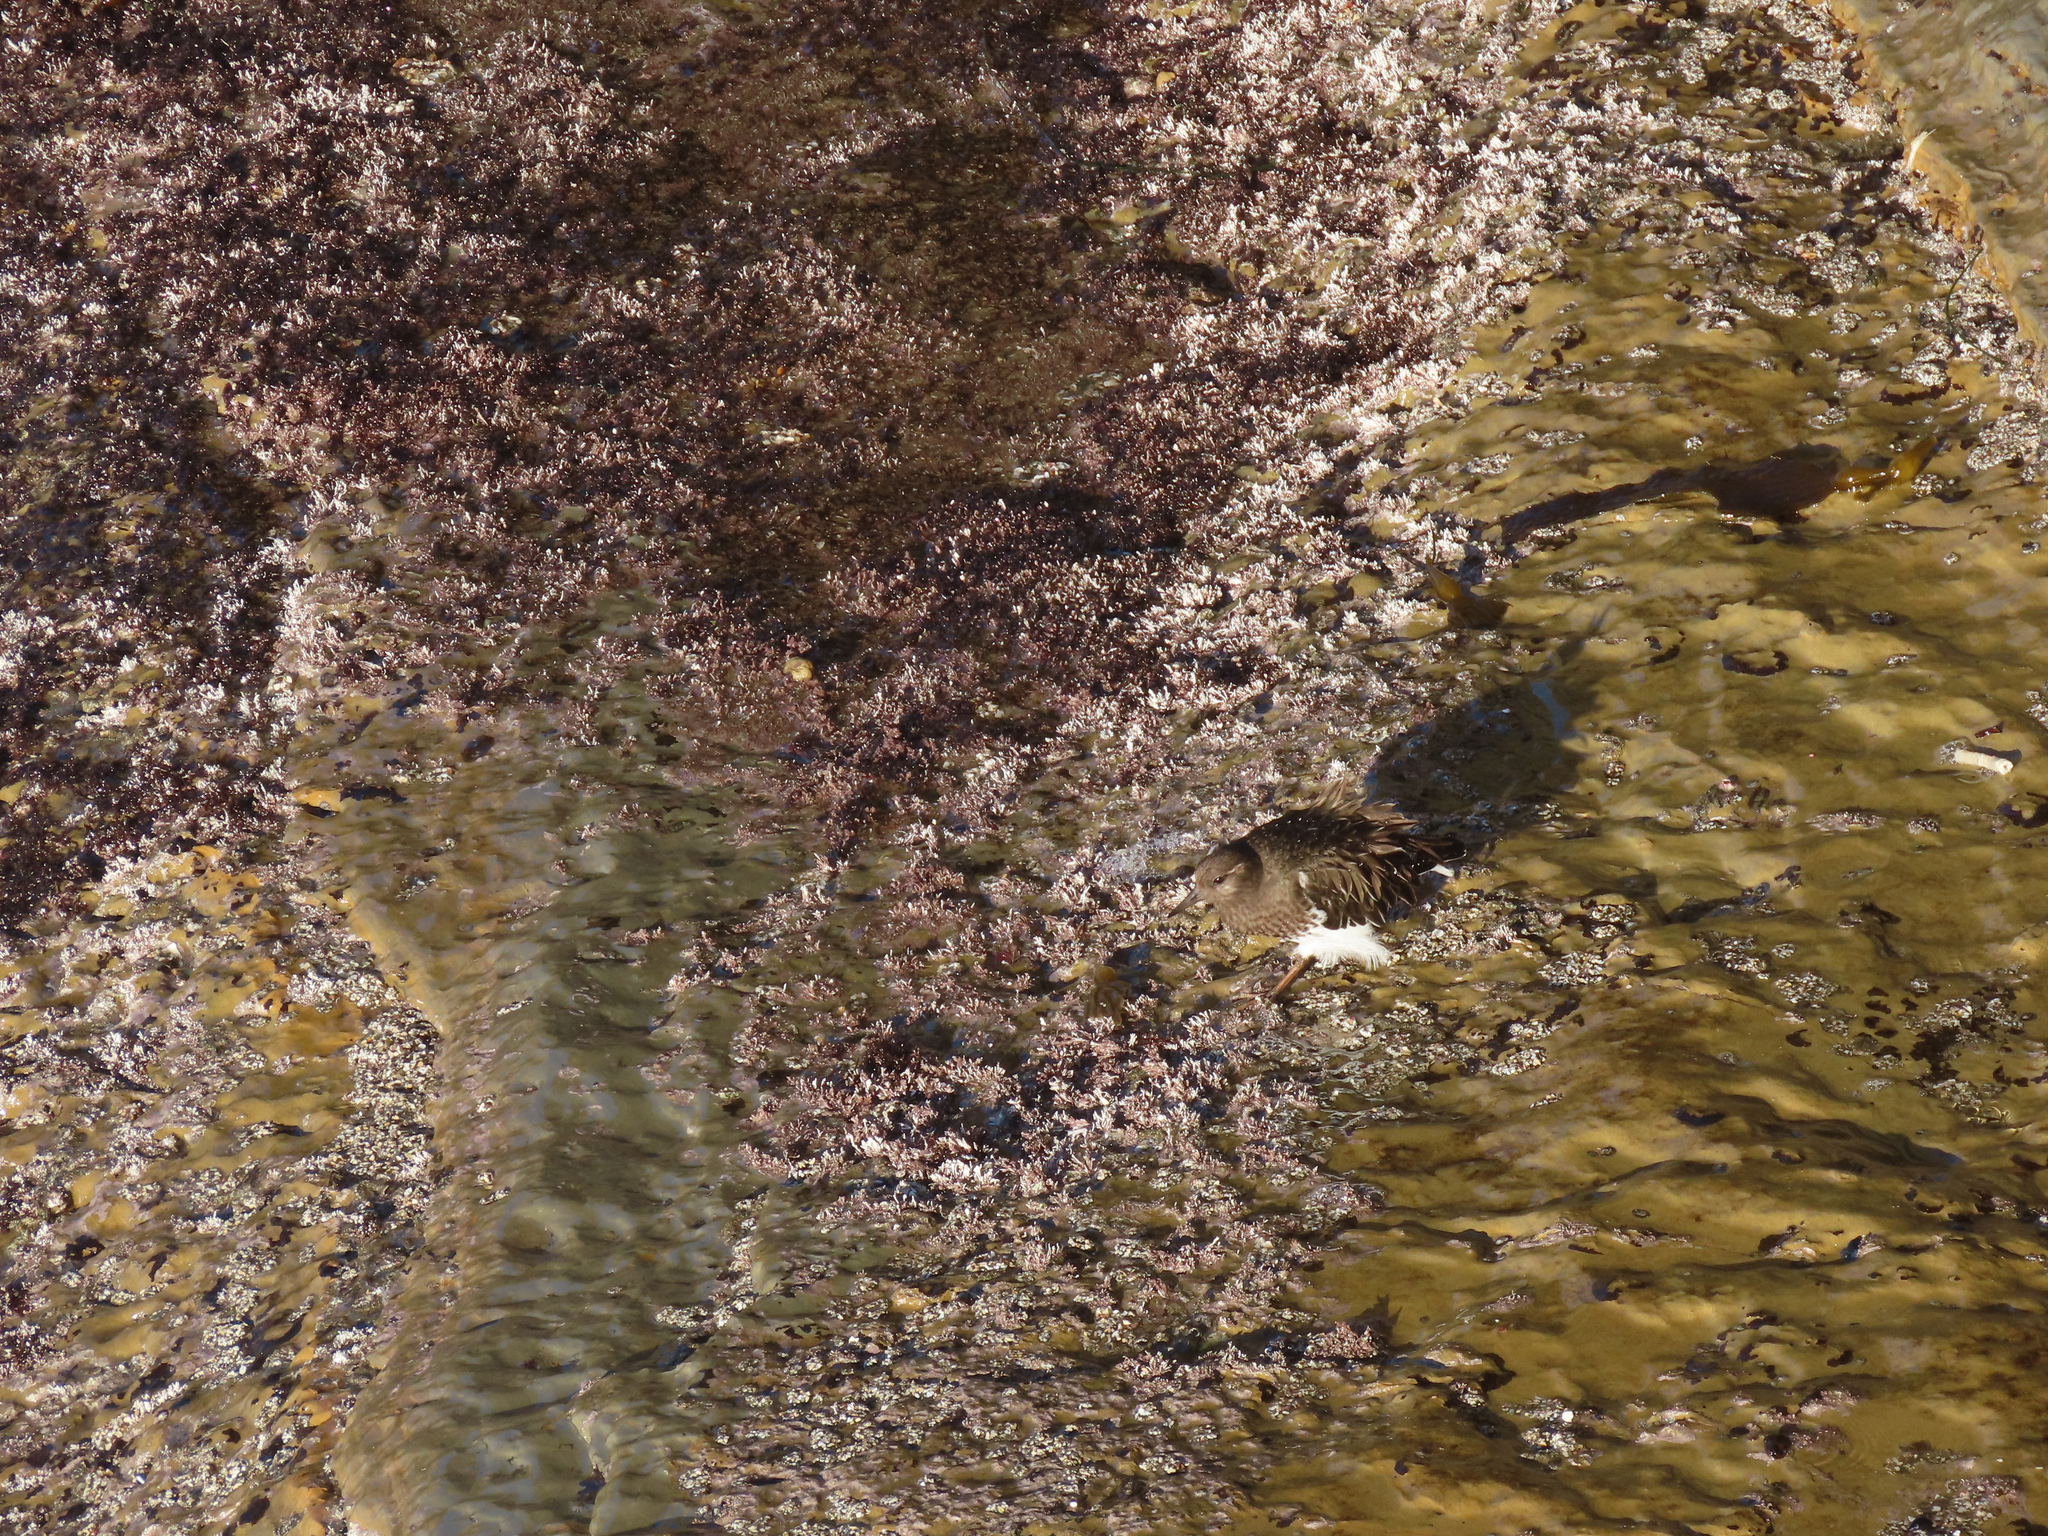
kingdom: Animalia
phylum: Chordata
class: Aves
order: Charadriiformes
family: Scolopacidae
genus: Arenaria
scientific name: Arenaria melanocephala
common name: Black turnstone
